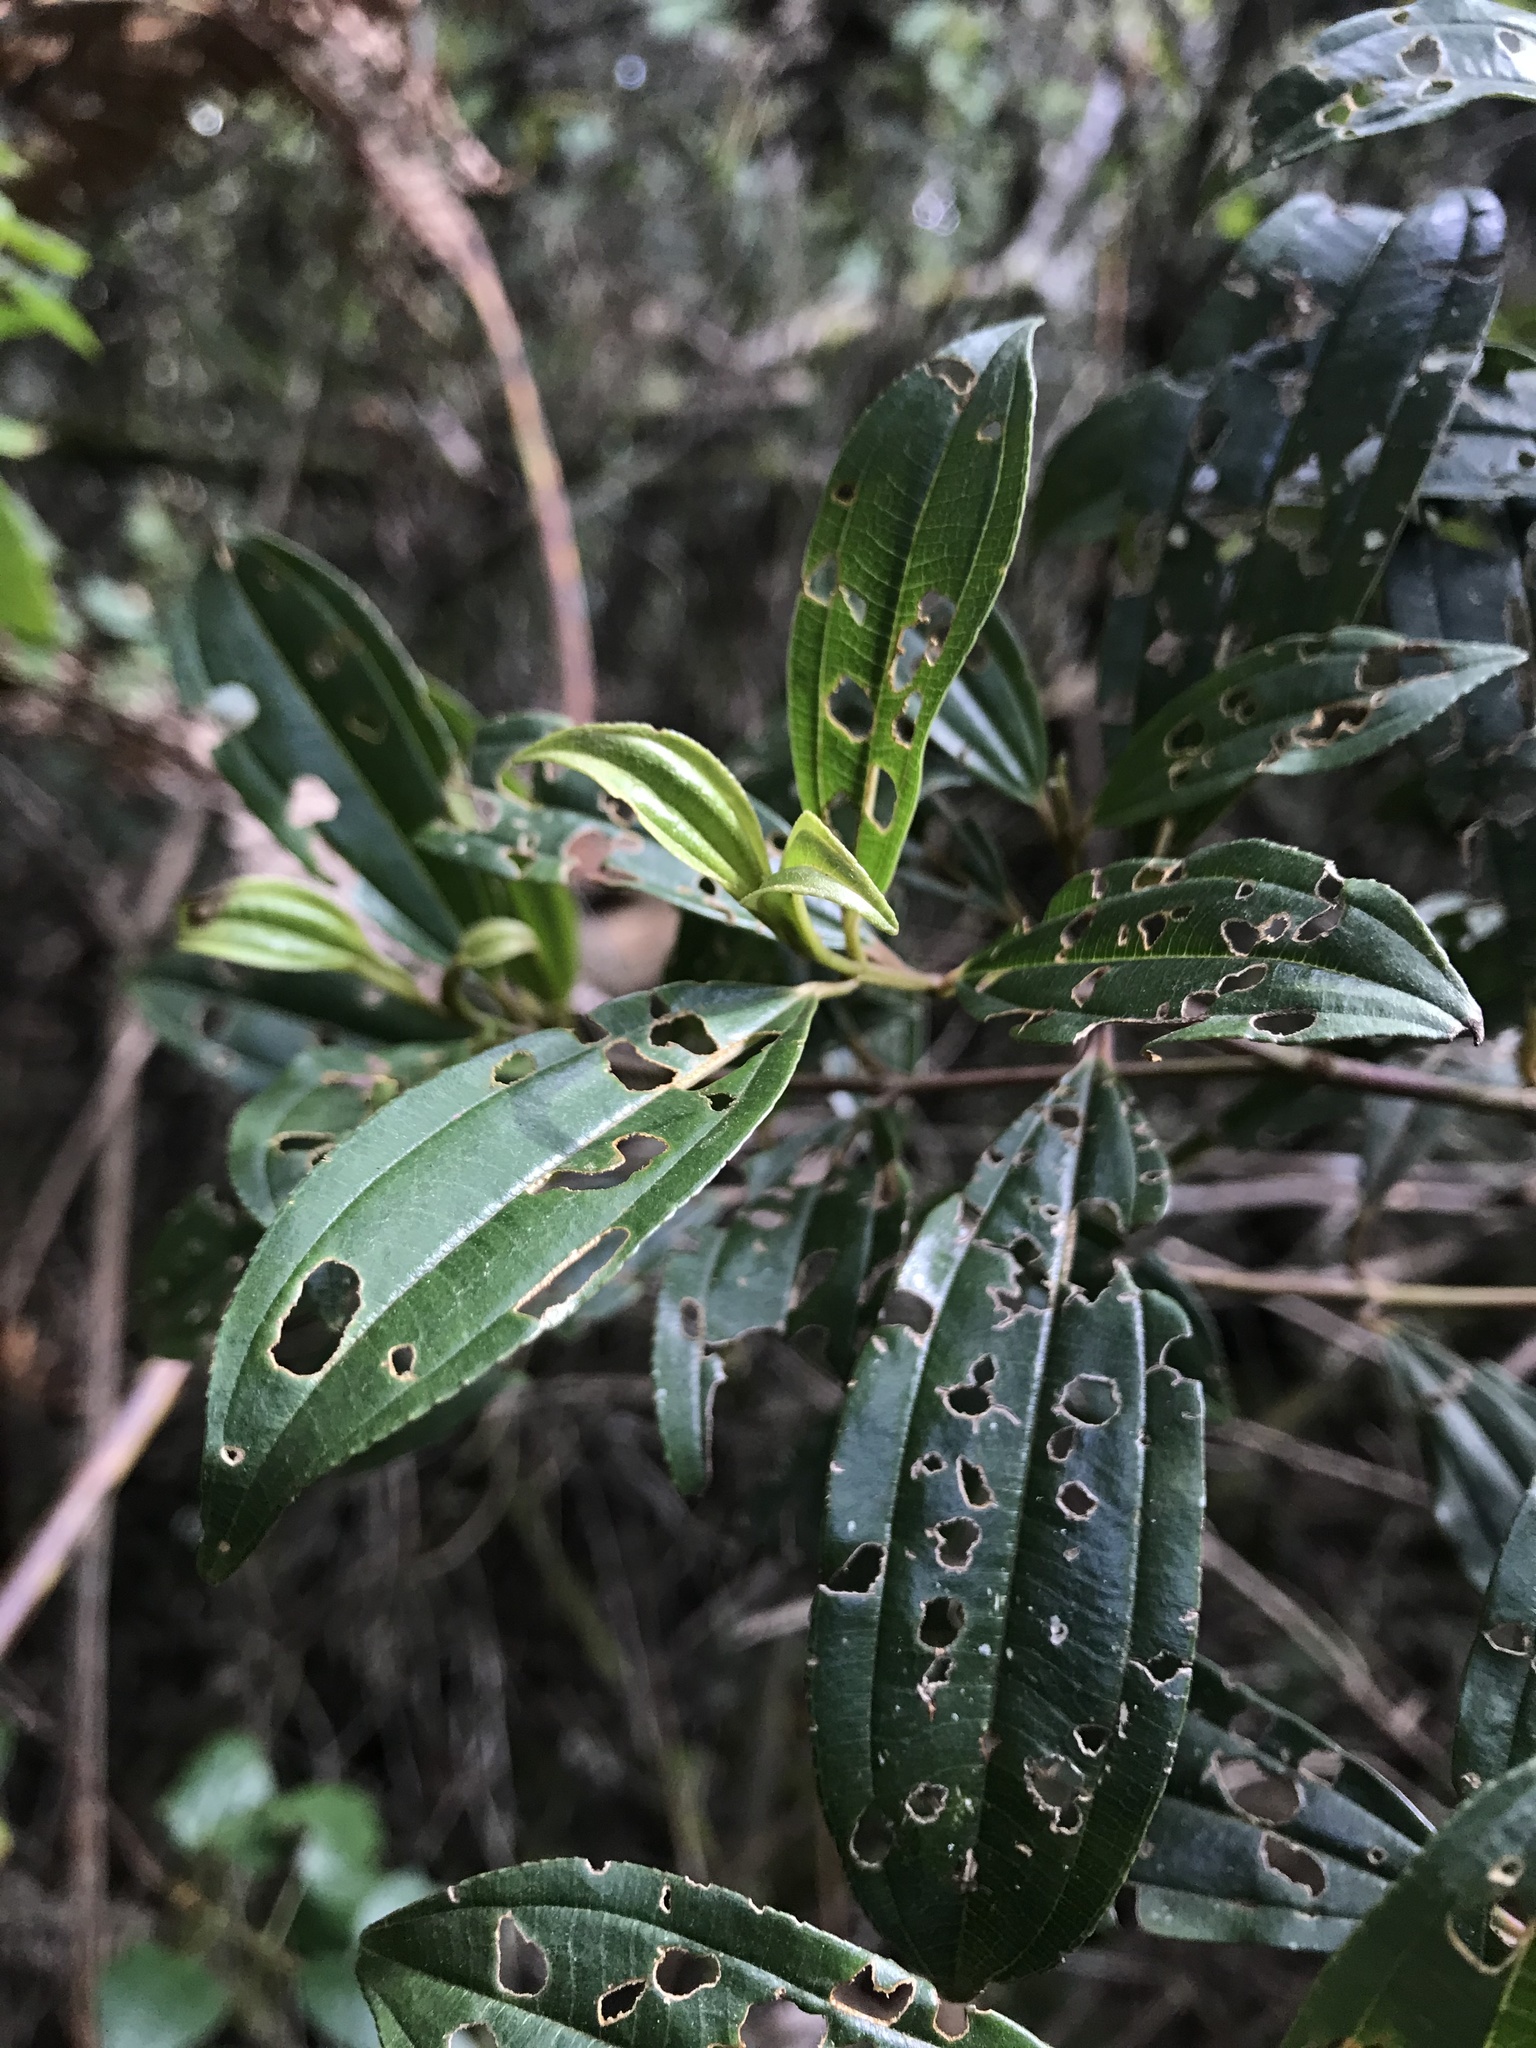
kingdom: Plantae
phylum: Tracheophyta
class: Magnoliopsida
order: Myrtales
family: Melastomataceae
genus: Miconia
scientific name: Miconia theizans
